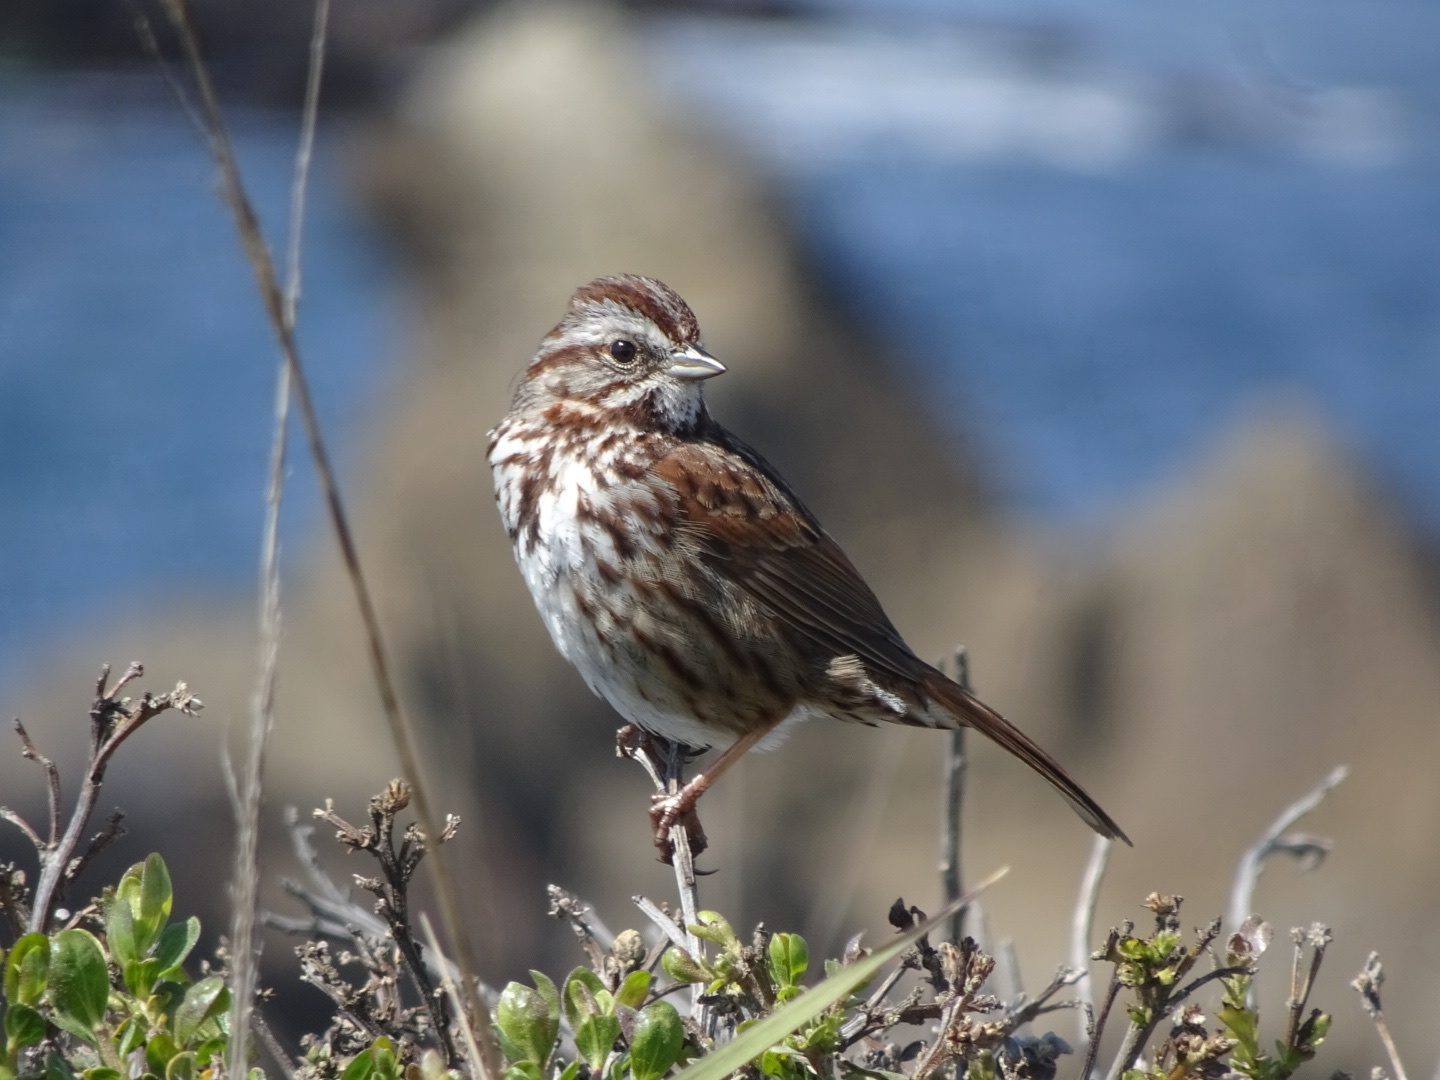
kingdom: Animalia
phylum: Chordata
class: Aves
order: Passeriformes
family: Passerellidae
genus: Melospiza
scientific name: Melospiza melodia
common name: Song sparrow
